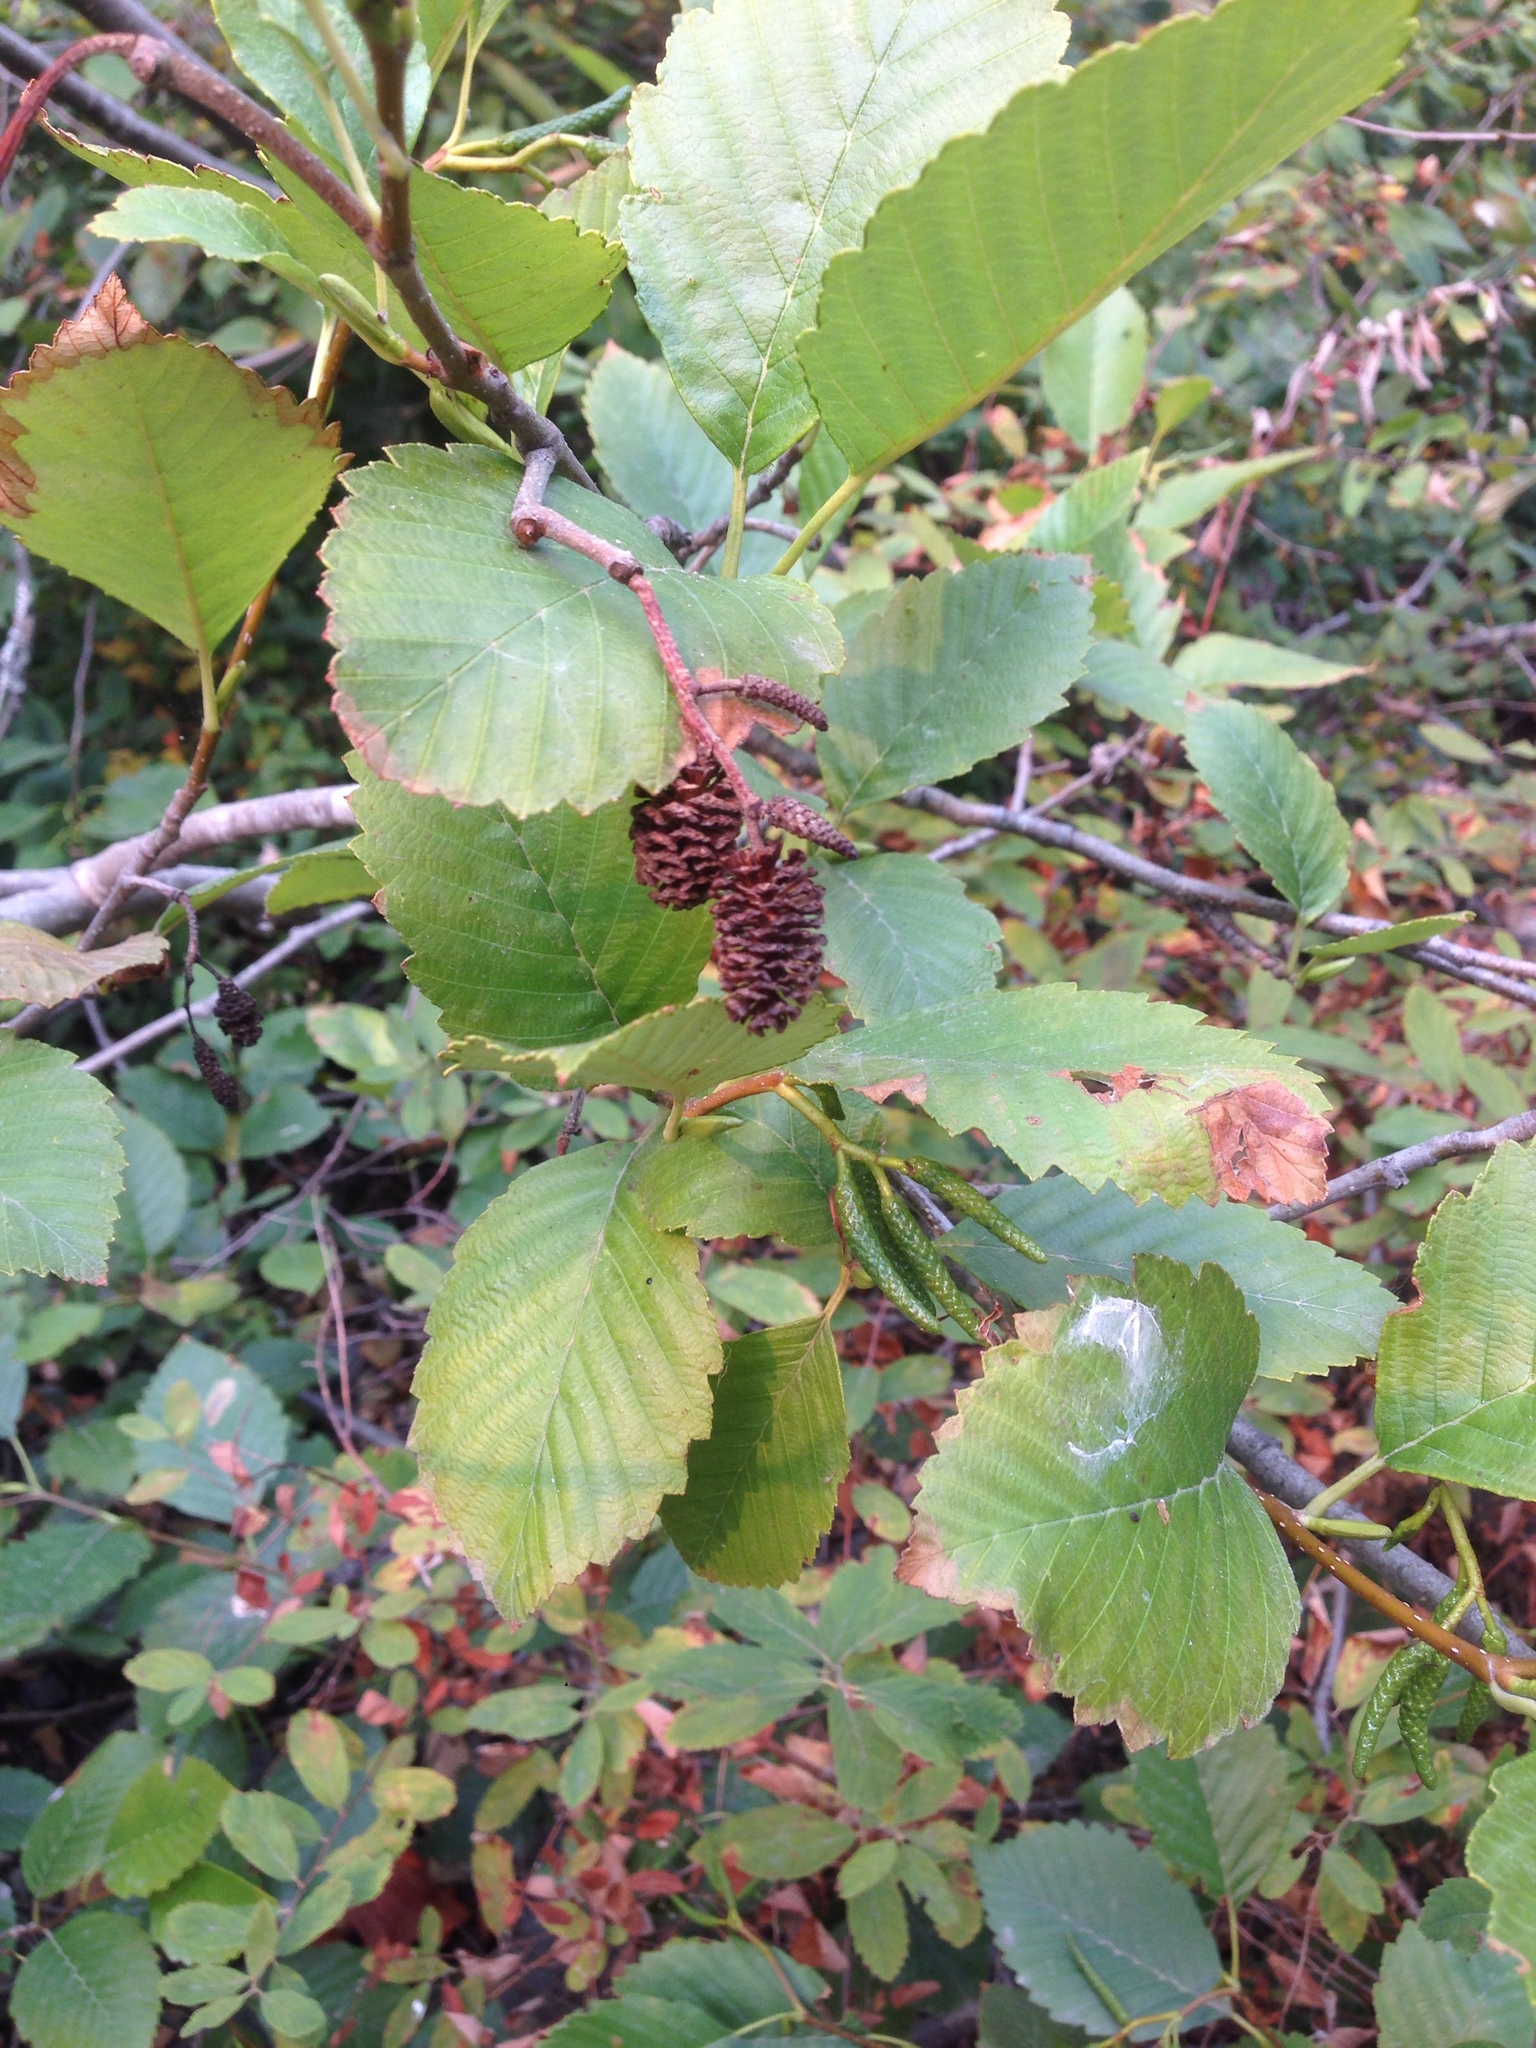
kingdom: Plantae
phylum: Tracheophyta
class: Magnoliopsida
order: Fagales
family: Betulaceae
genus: Alnus
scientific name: Alnus rubra
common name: Red alder
